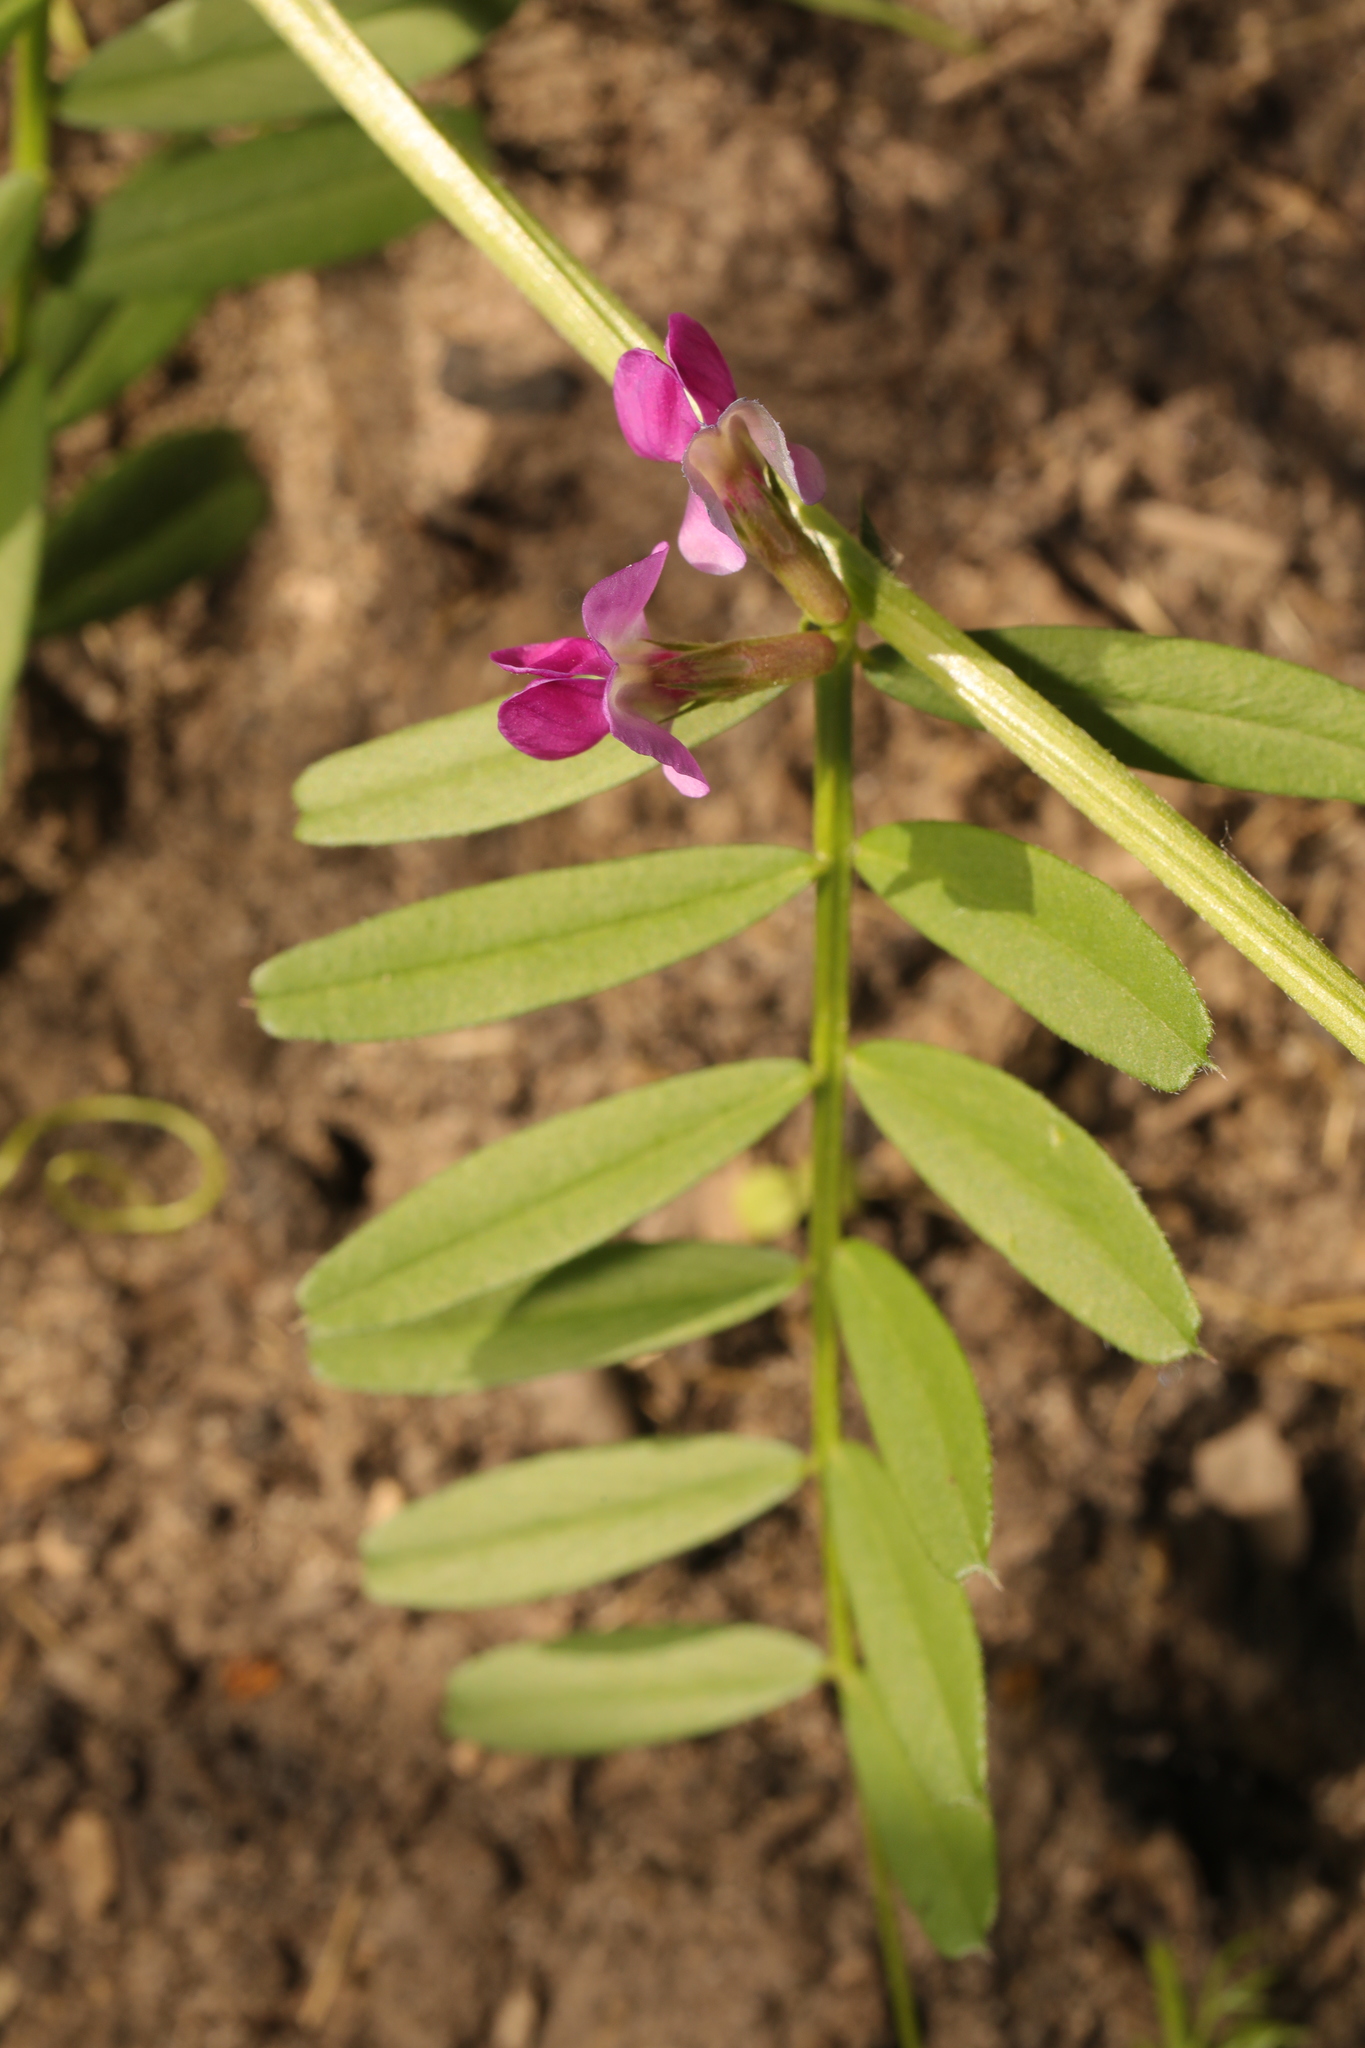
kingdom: Plantae
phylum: Tracheophyta
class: Magnoliopsida
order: Fabales
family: Fabaceae
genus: Vicia
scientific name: Vicia sativa
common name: Garden vetch
